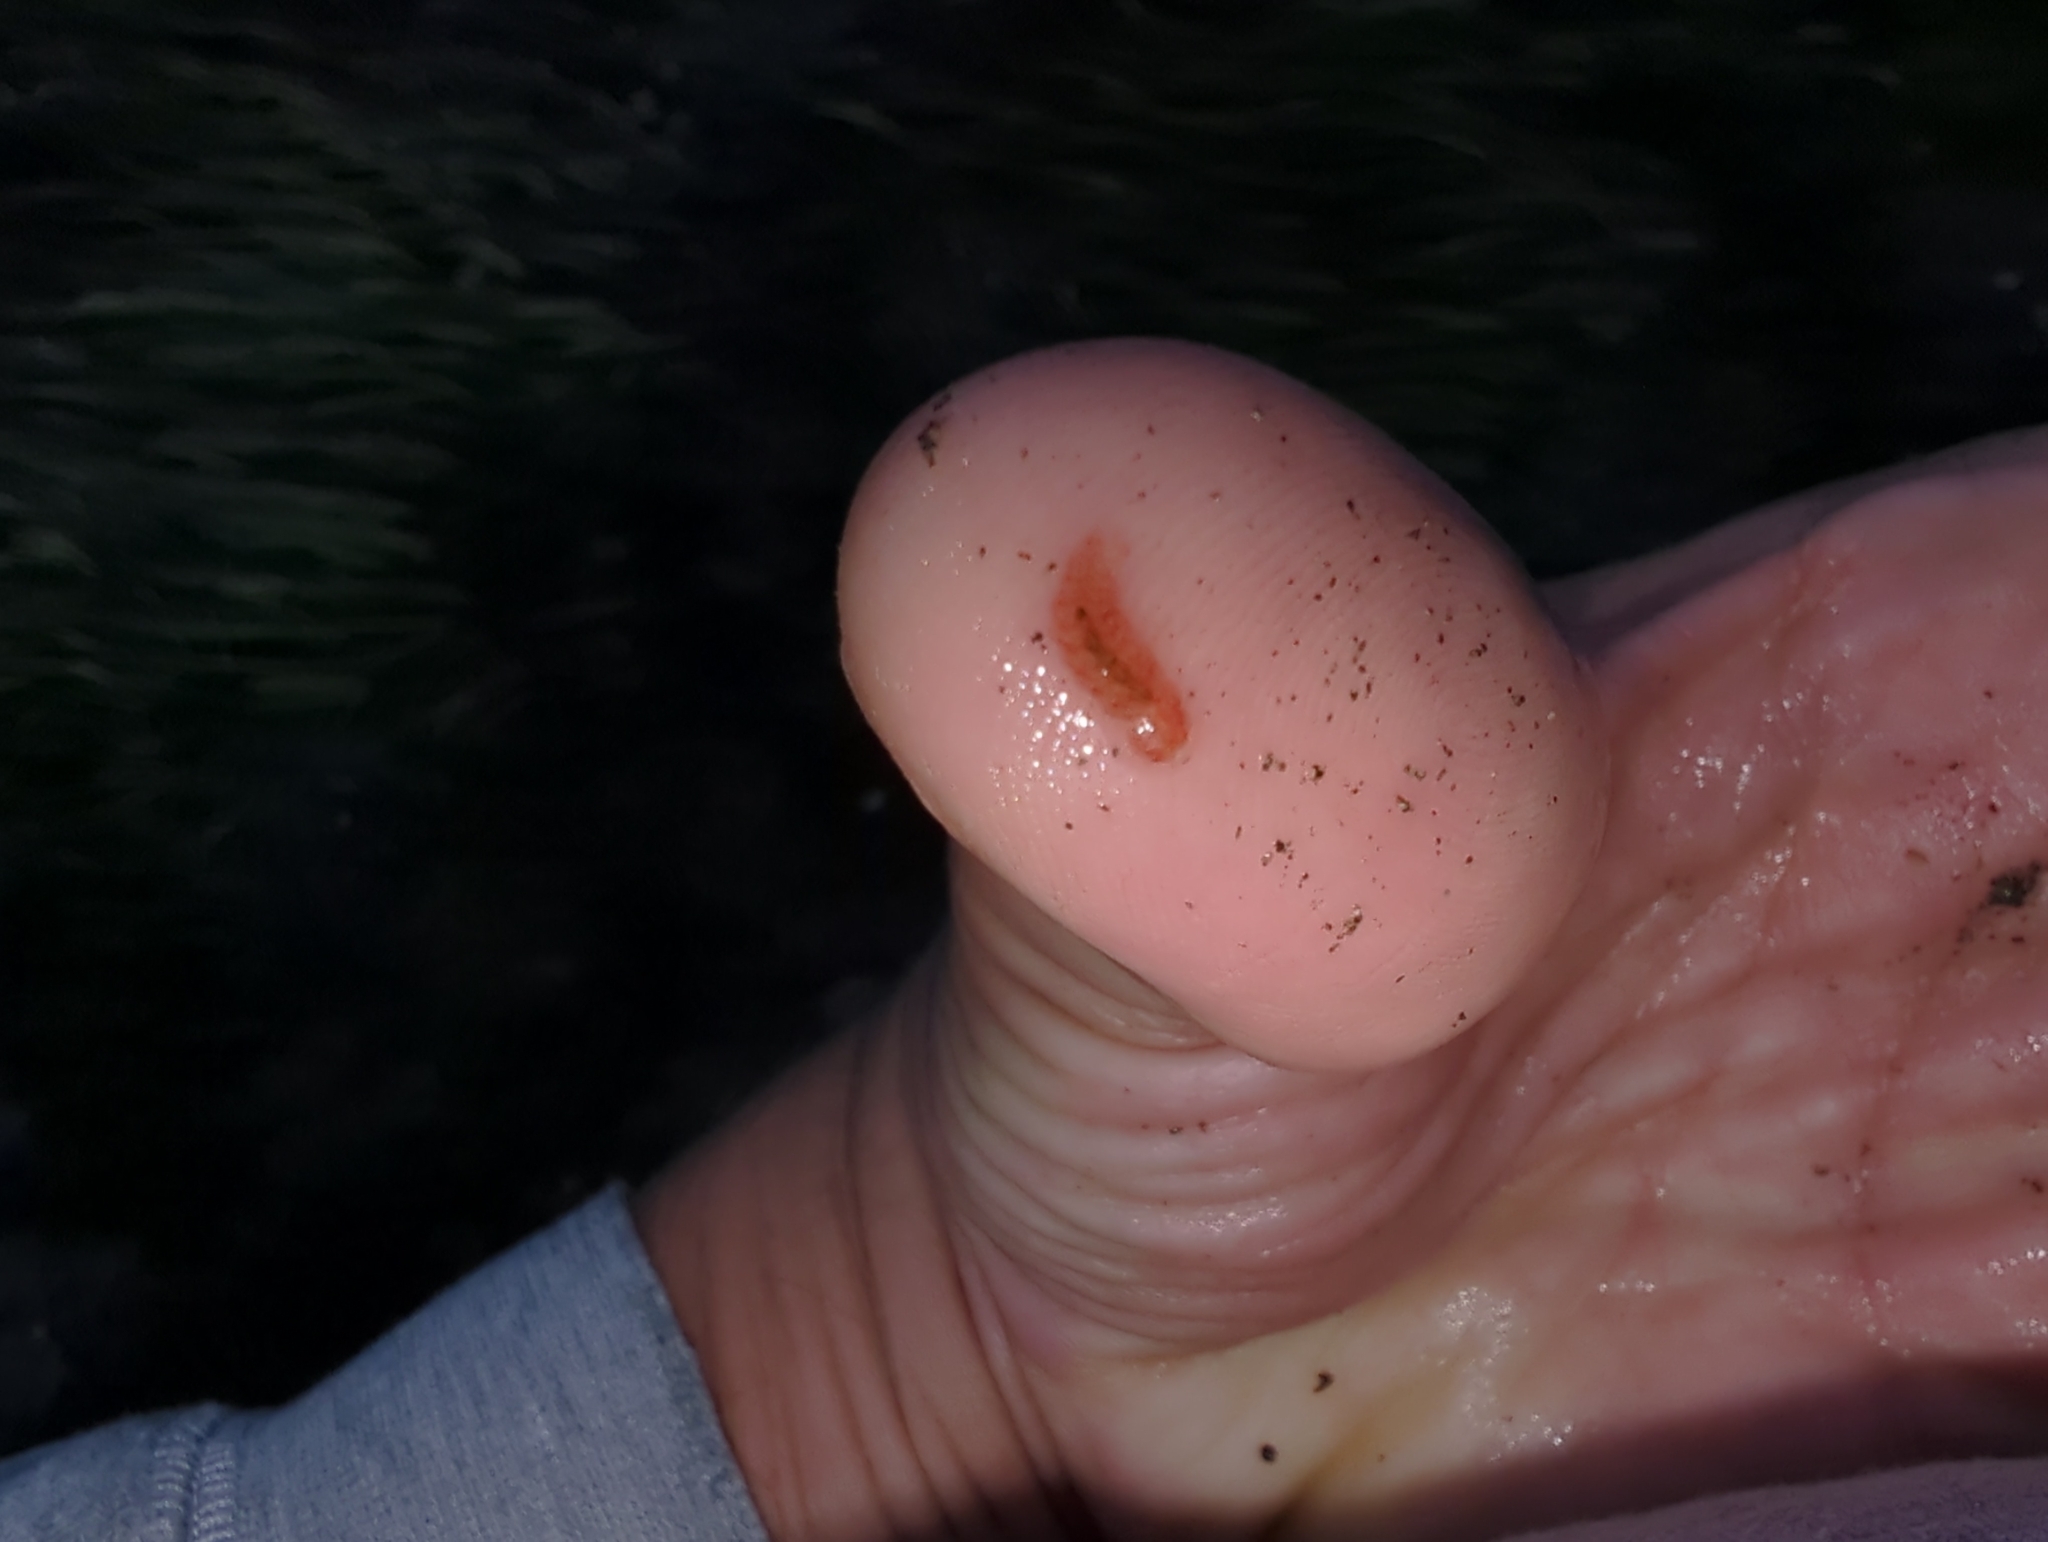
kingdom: Animalia
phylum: Annelida
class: Polychaeta
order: Phyllodocida
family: Polynoidae
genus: Arctonoe
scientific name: Arctonoe pulchra
